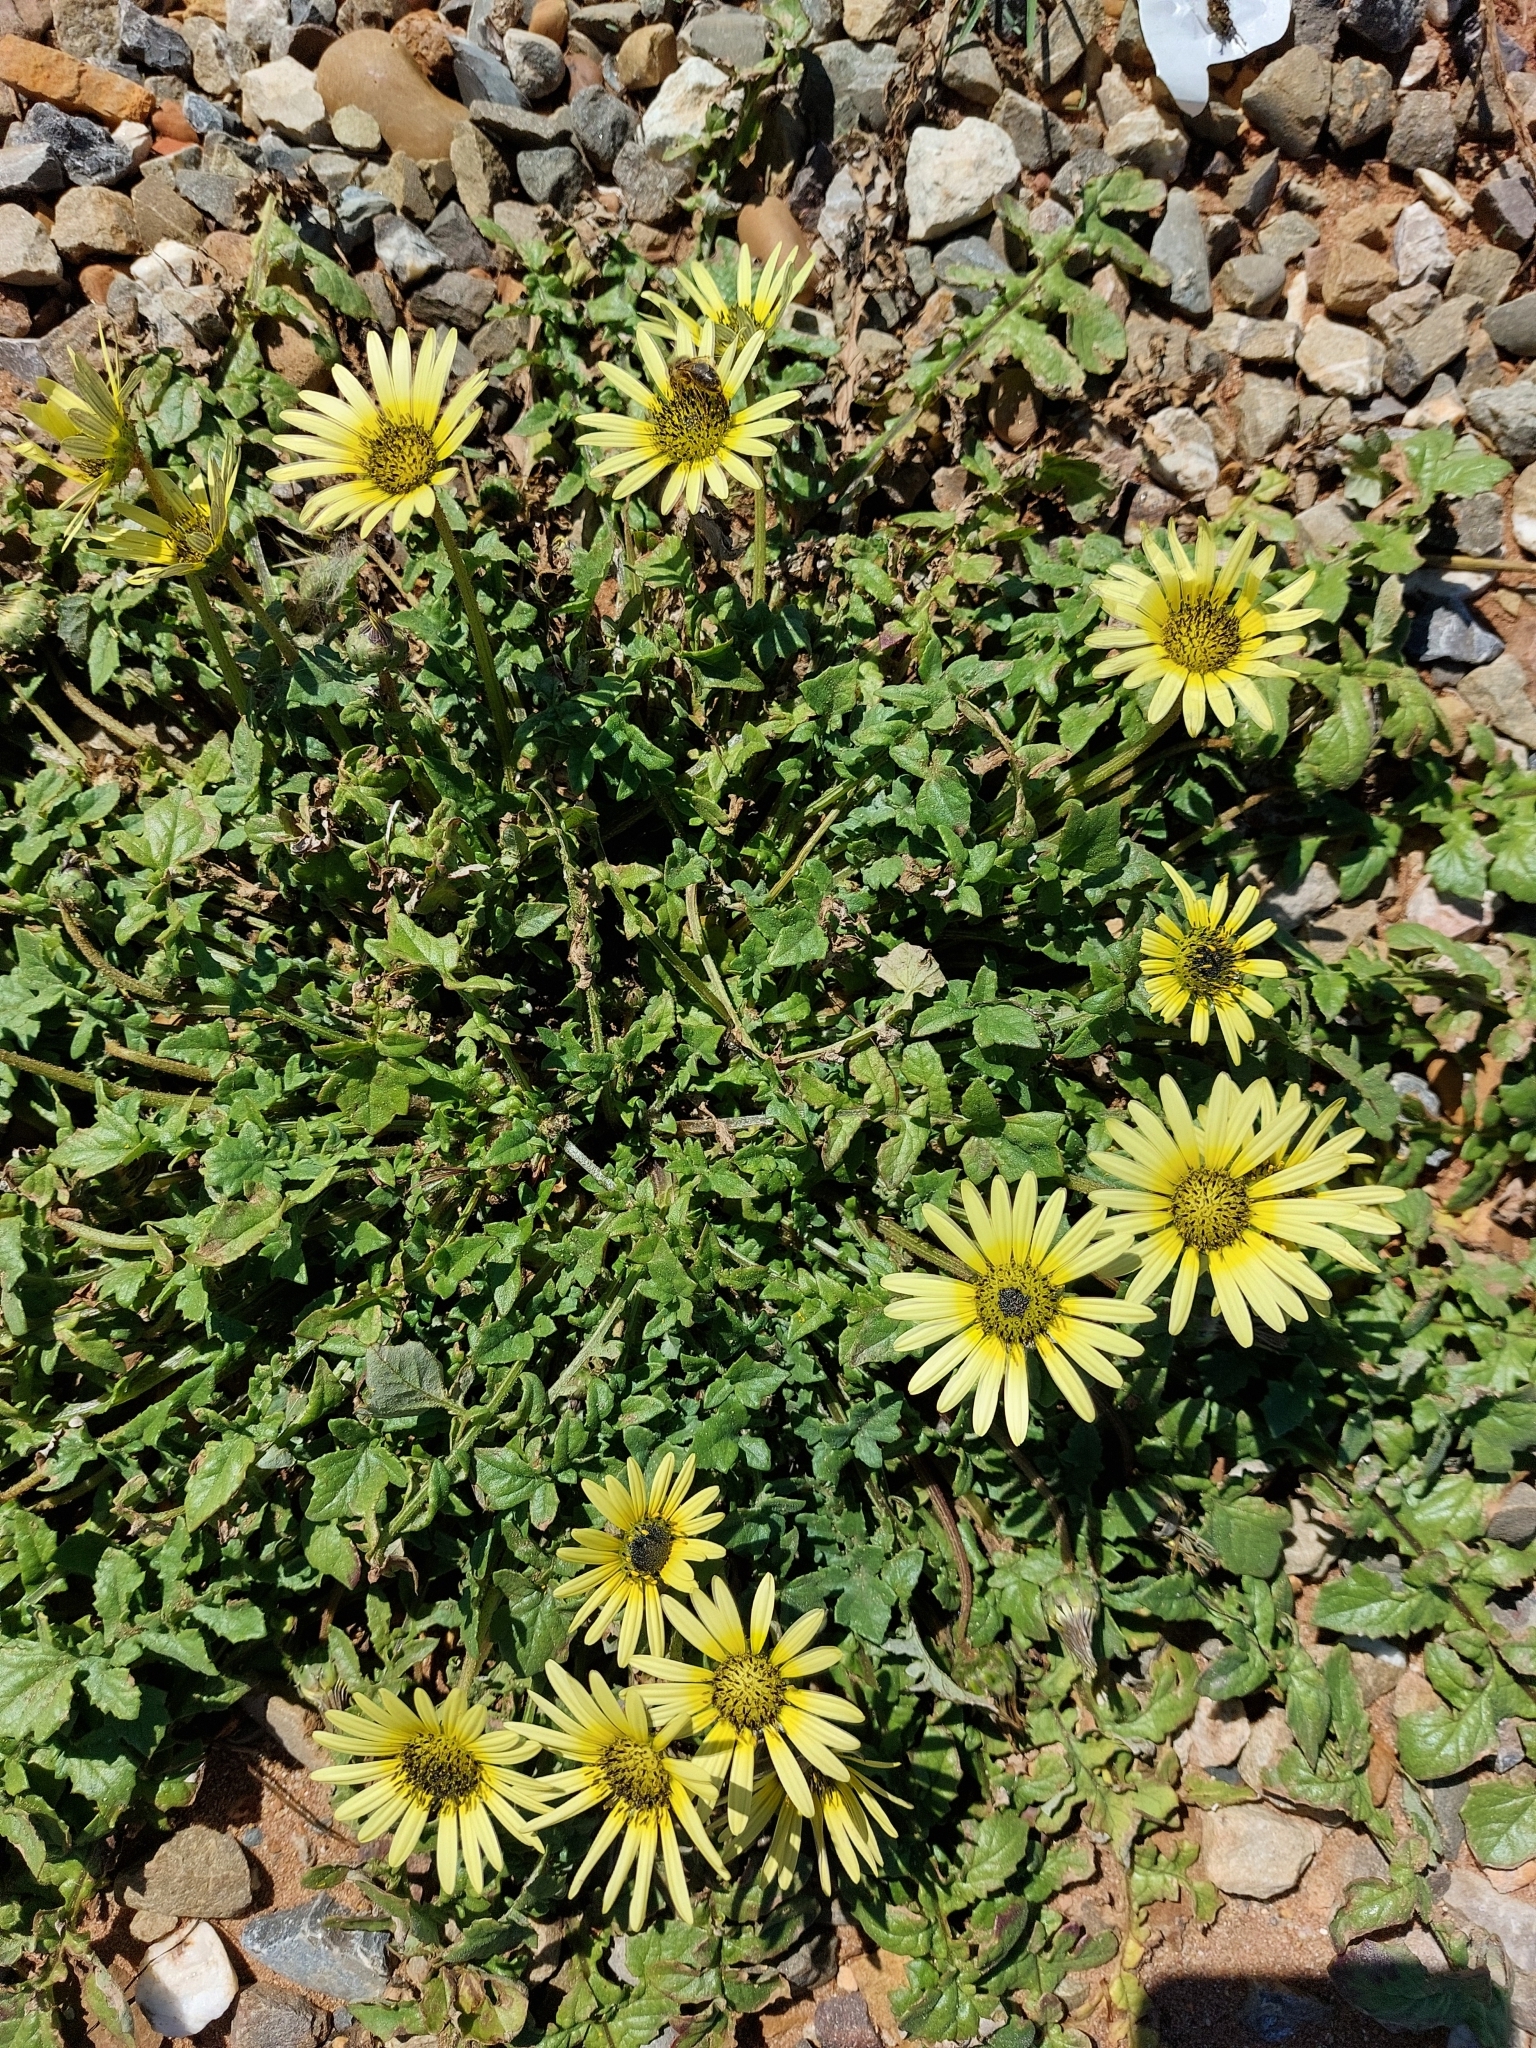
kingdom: Plantae
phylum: Tracheophyta
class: Magnoliopsida
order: Asterales
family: Asteraceae
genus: Arctotheca
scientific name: Arctotheca calendula
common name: Capeweed
